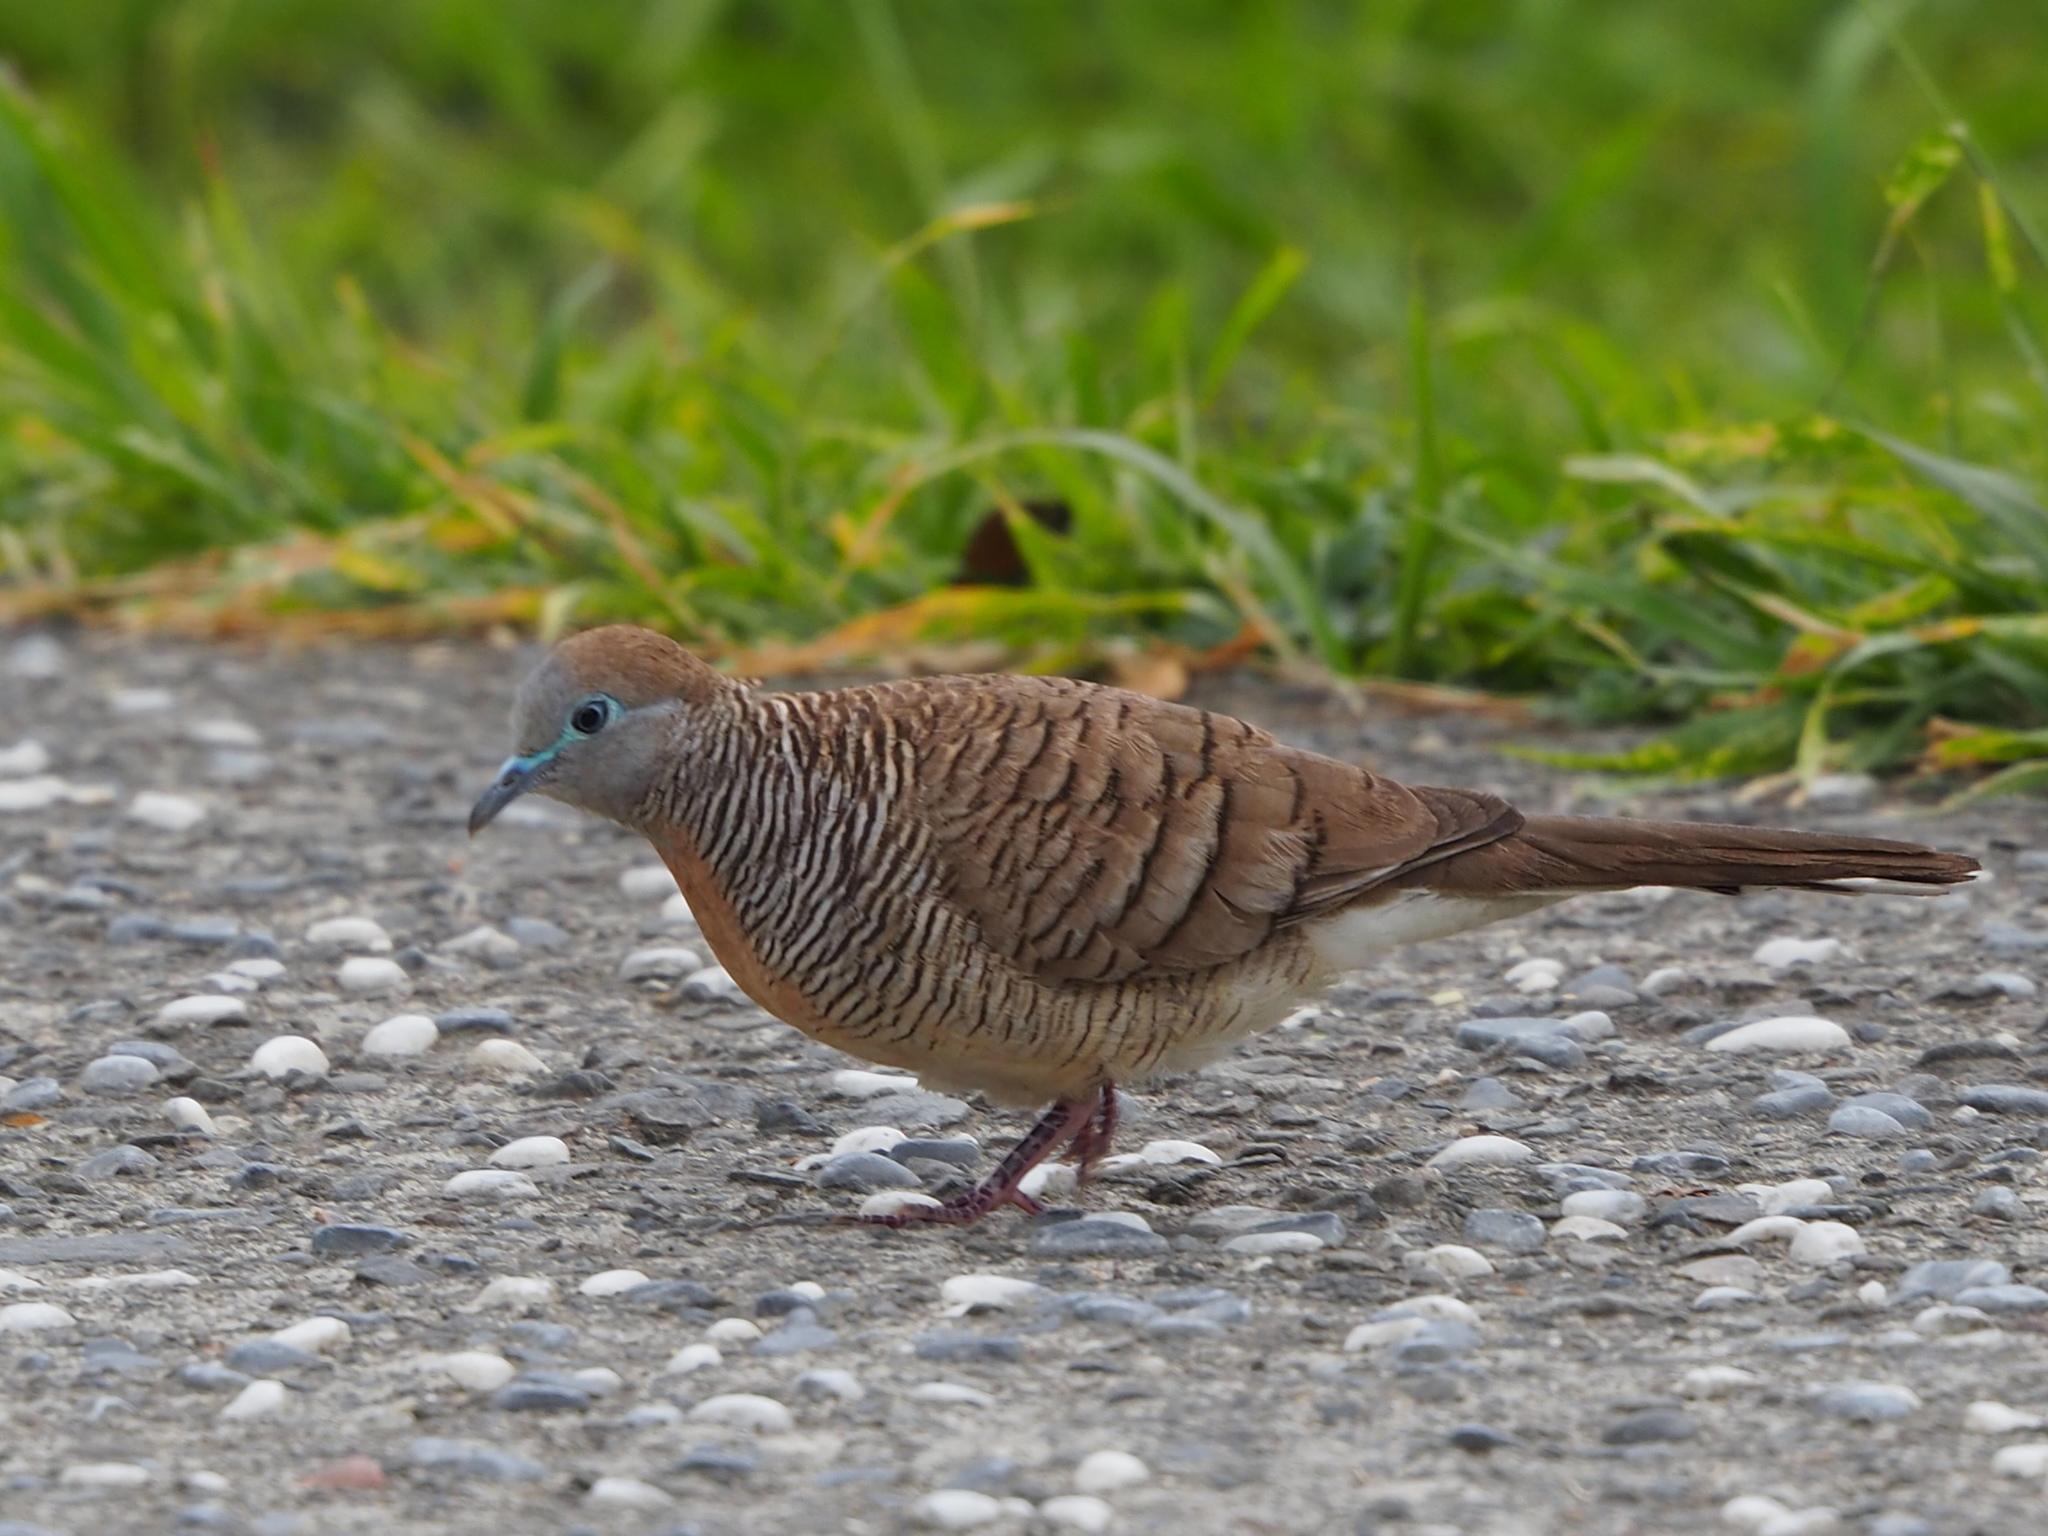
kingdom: Animalia
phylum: Chordata
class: Aves
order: Columbiformes
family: Columbidae
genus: Geopelia
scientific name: Geopelia striata
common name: Zebra dove
